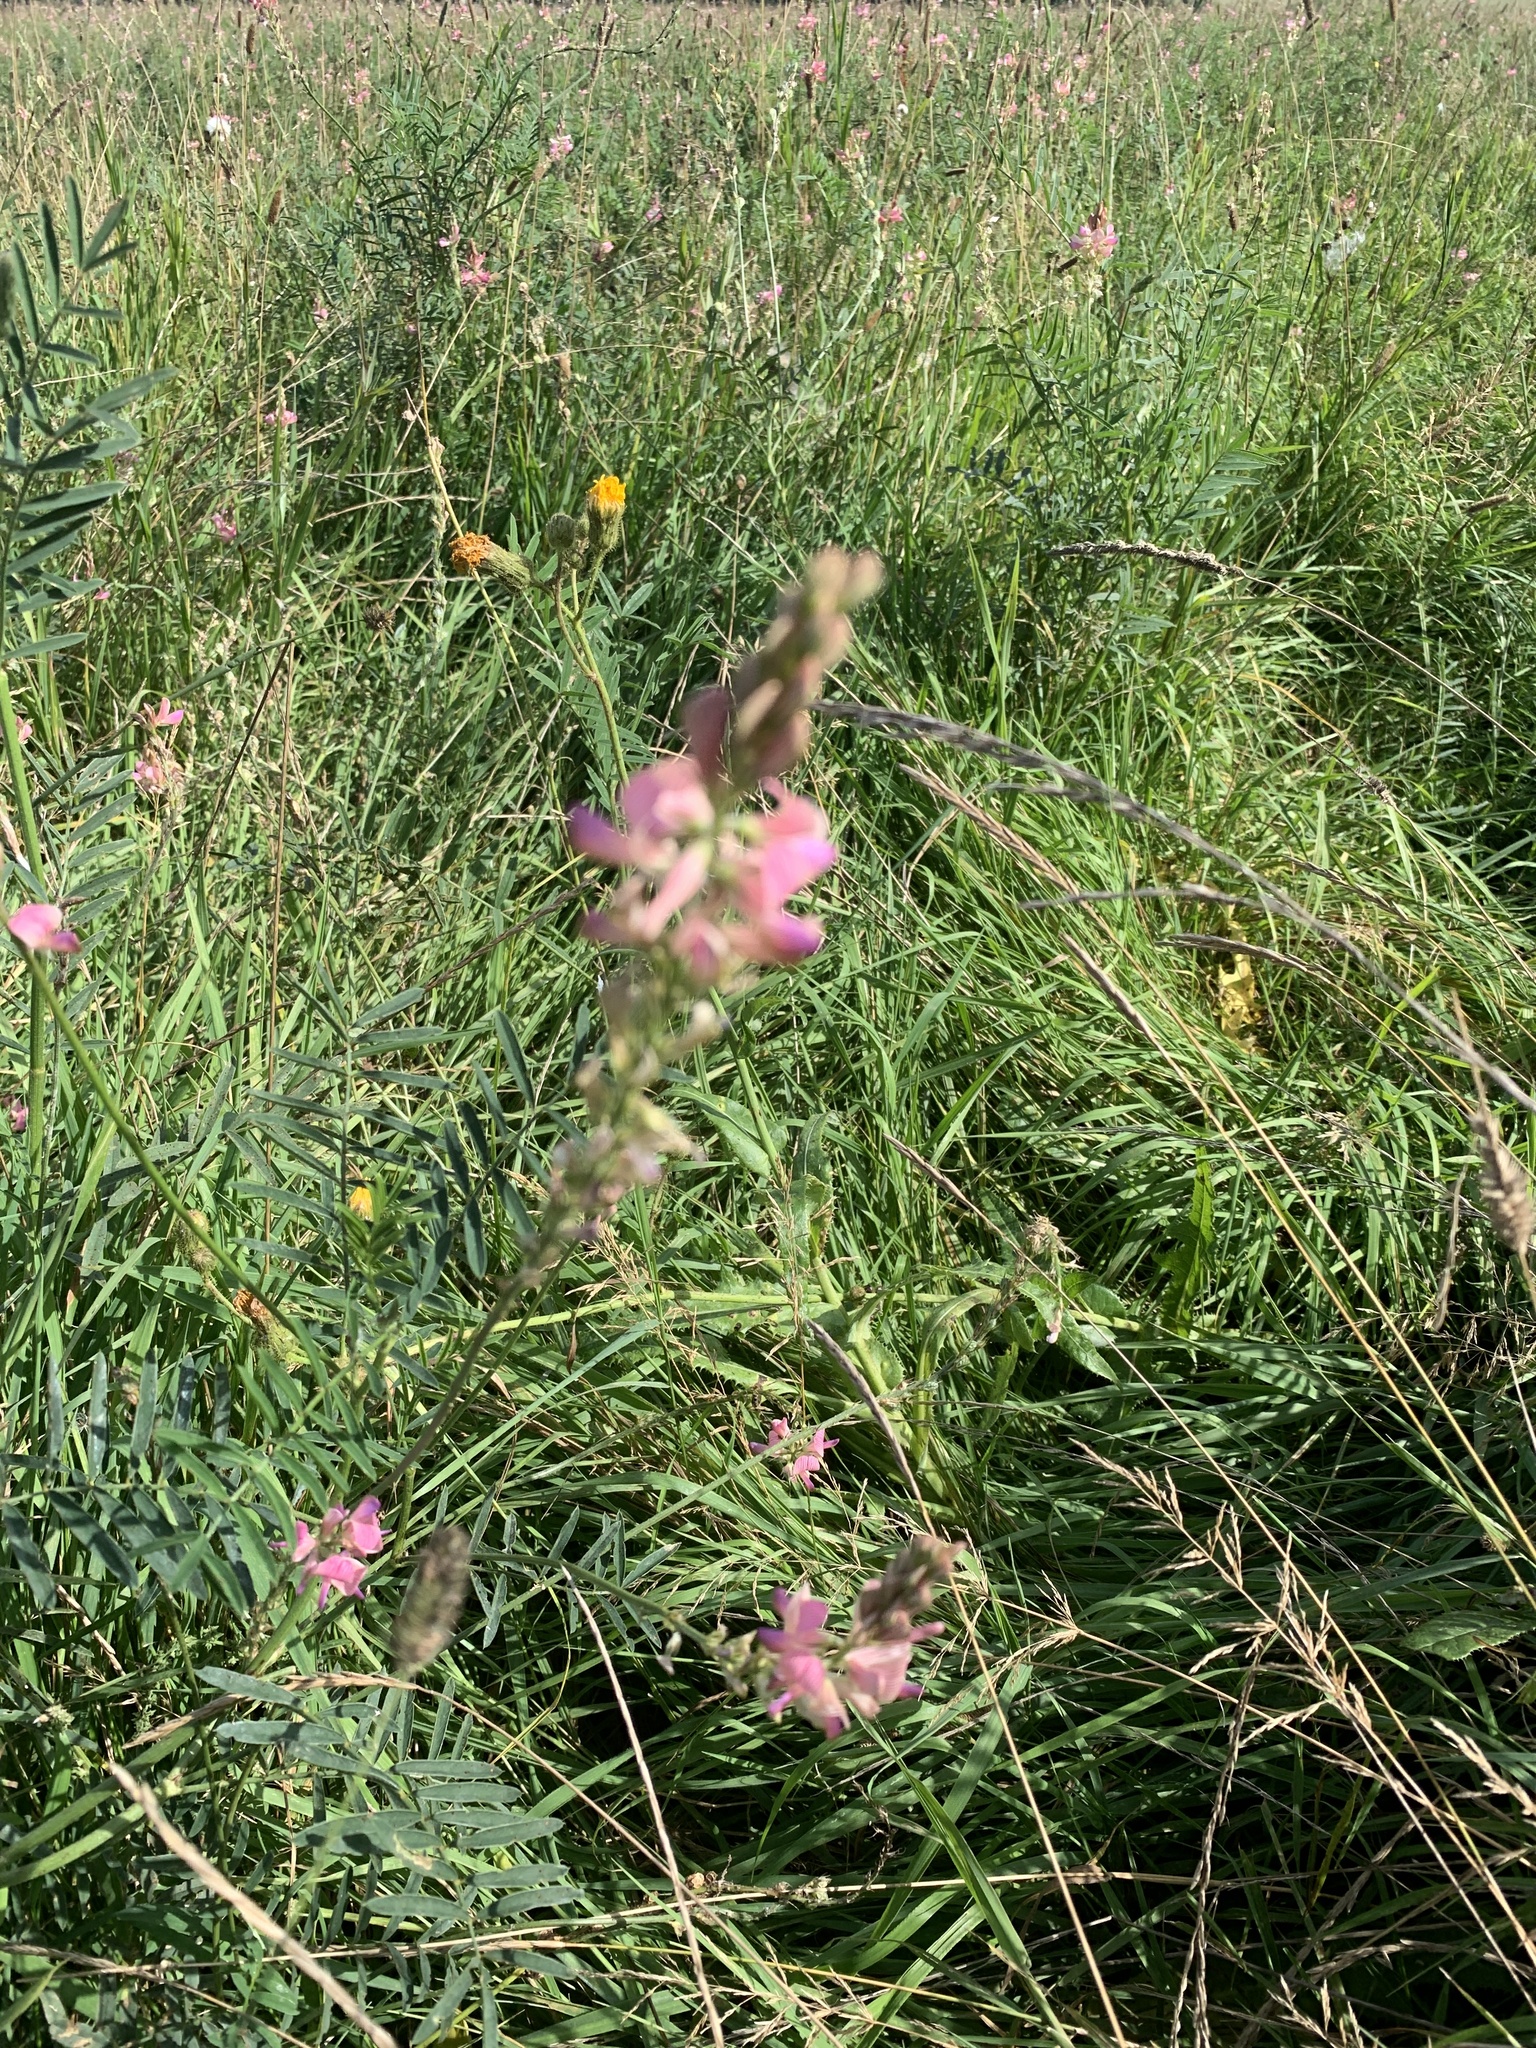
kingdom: Plantae
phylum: Tracheophyta
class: Magnoliopsida
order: Fabales
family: Fabaceae
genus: Onobrychis
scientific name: Onobrychis viciifolia
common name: Sainfoin
